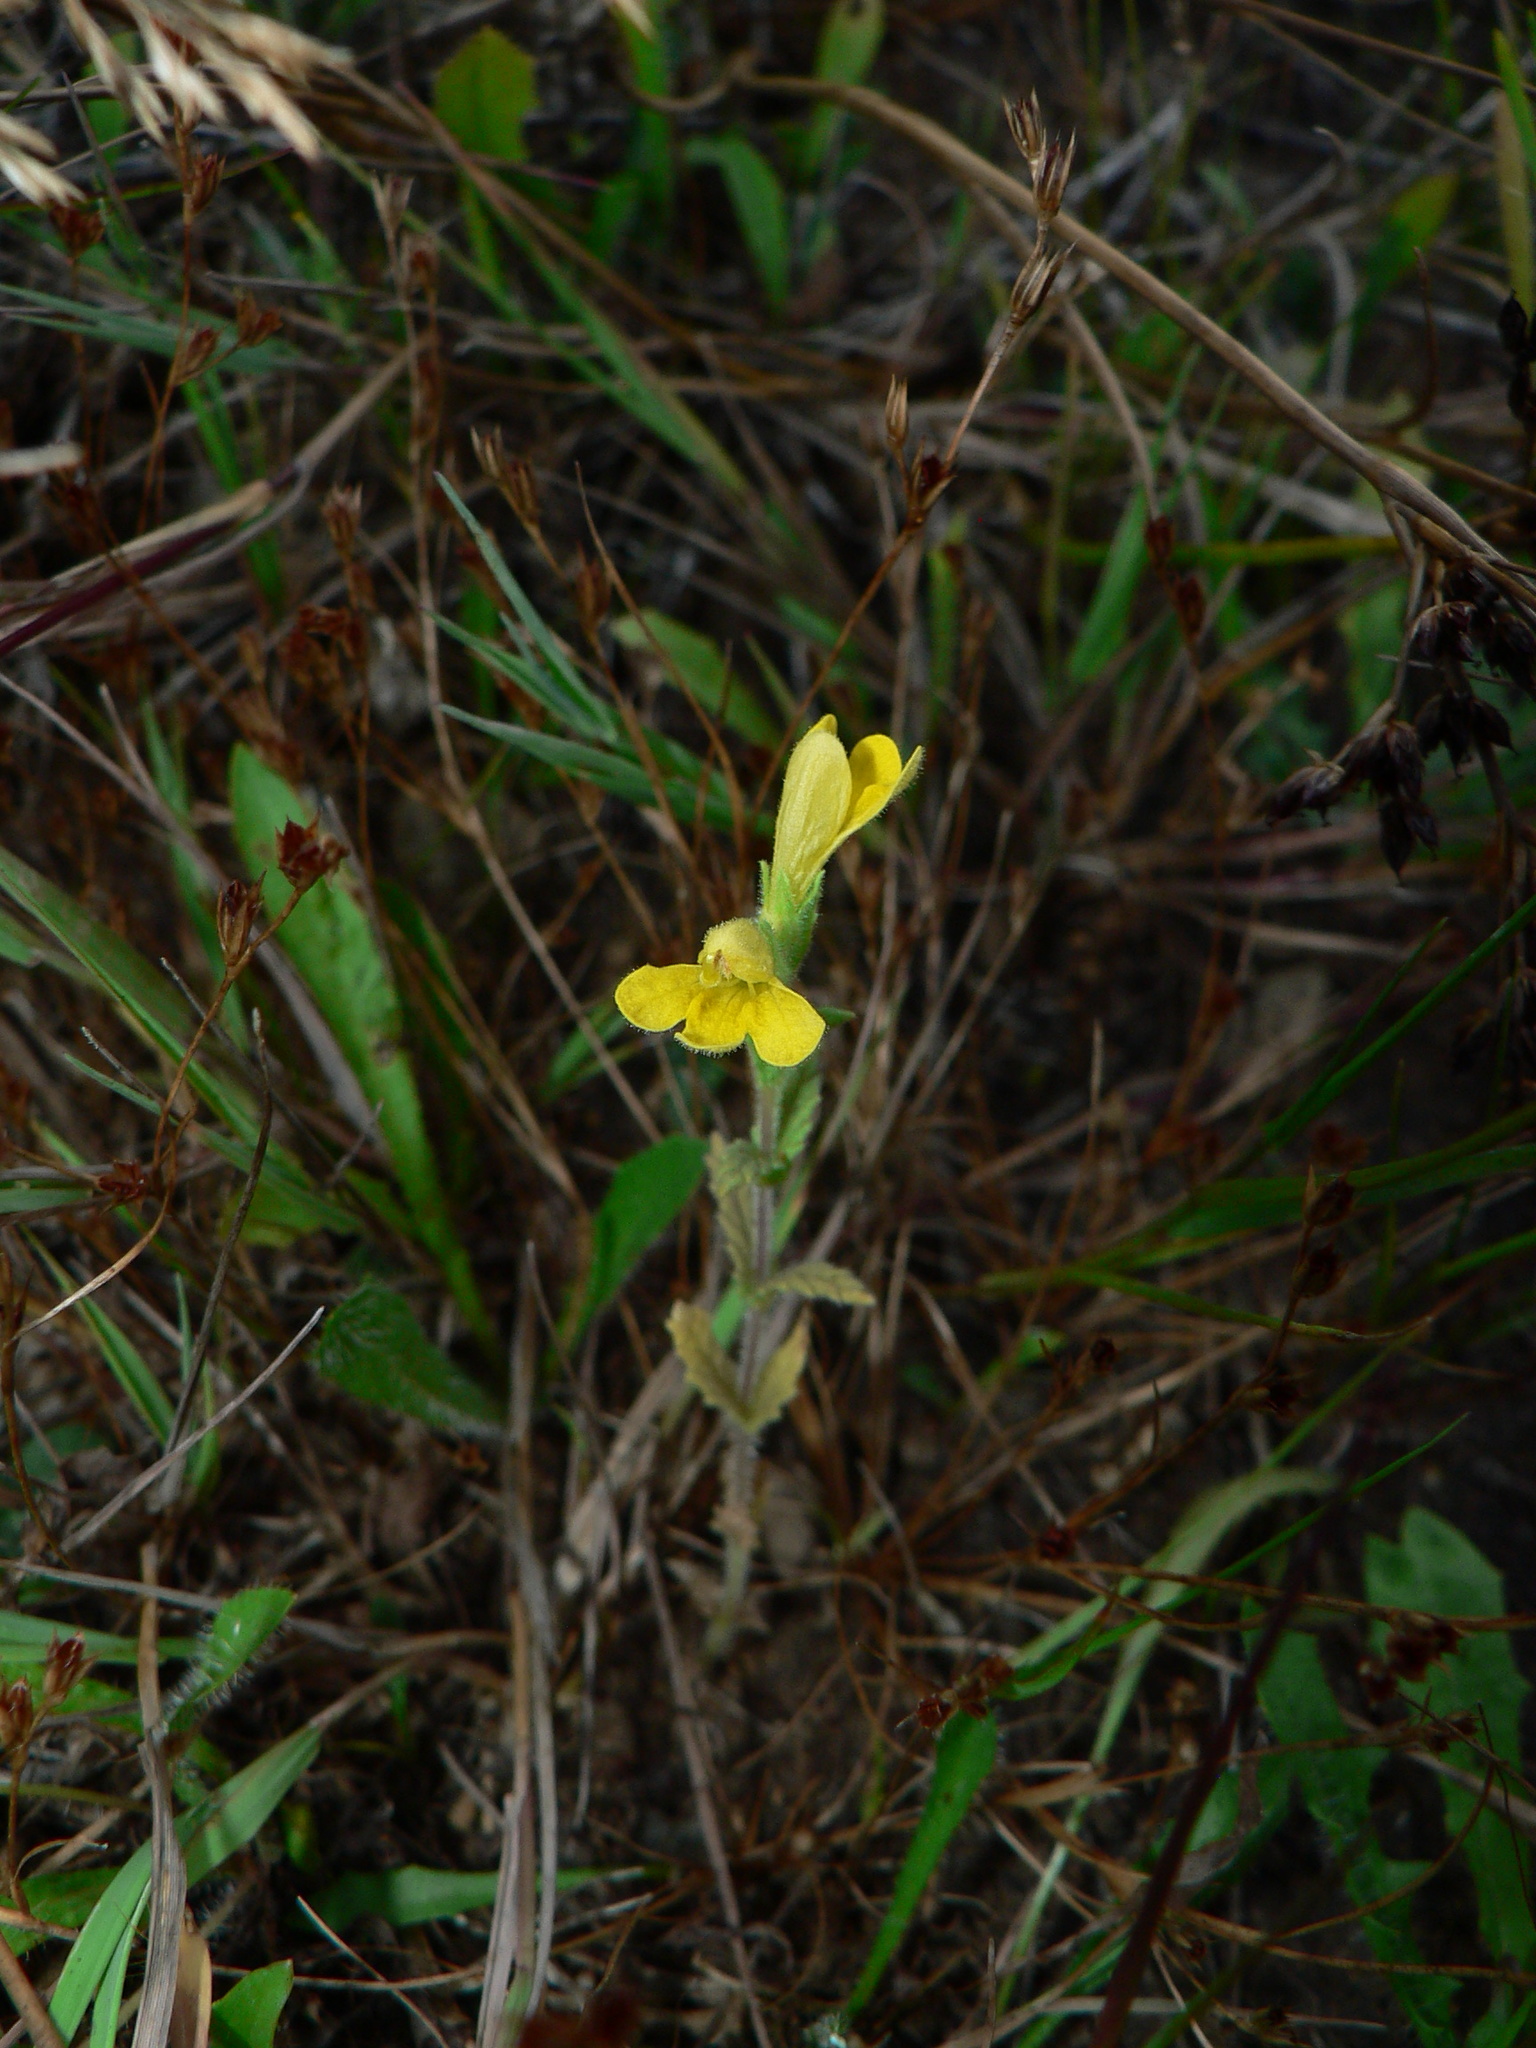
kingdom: Plantae
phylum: Tracheophyta
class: Magnoliopsida
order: Lamiales
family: Orobanchaceae
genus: Bellardia
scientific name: Bellardia viscosa
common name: Sticky parentucellia
